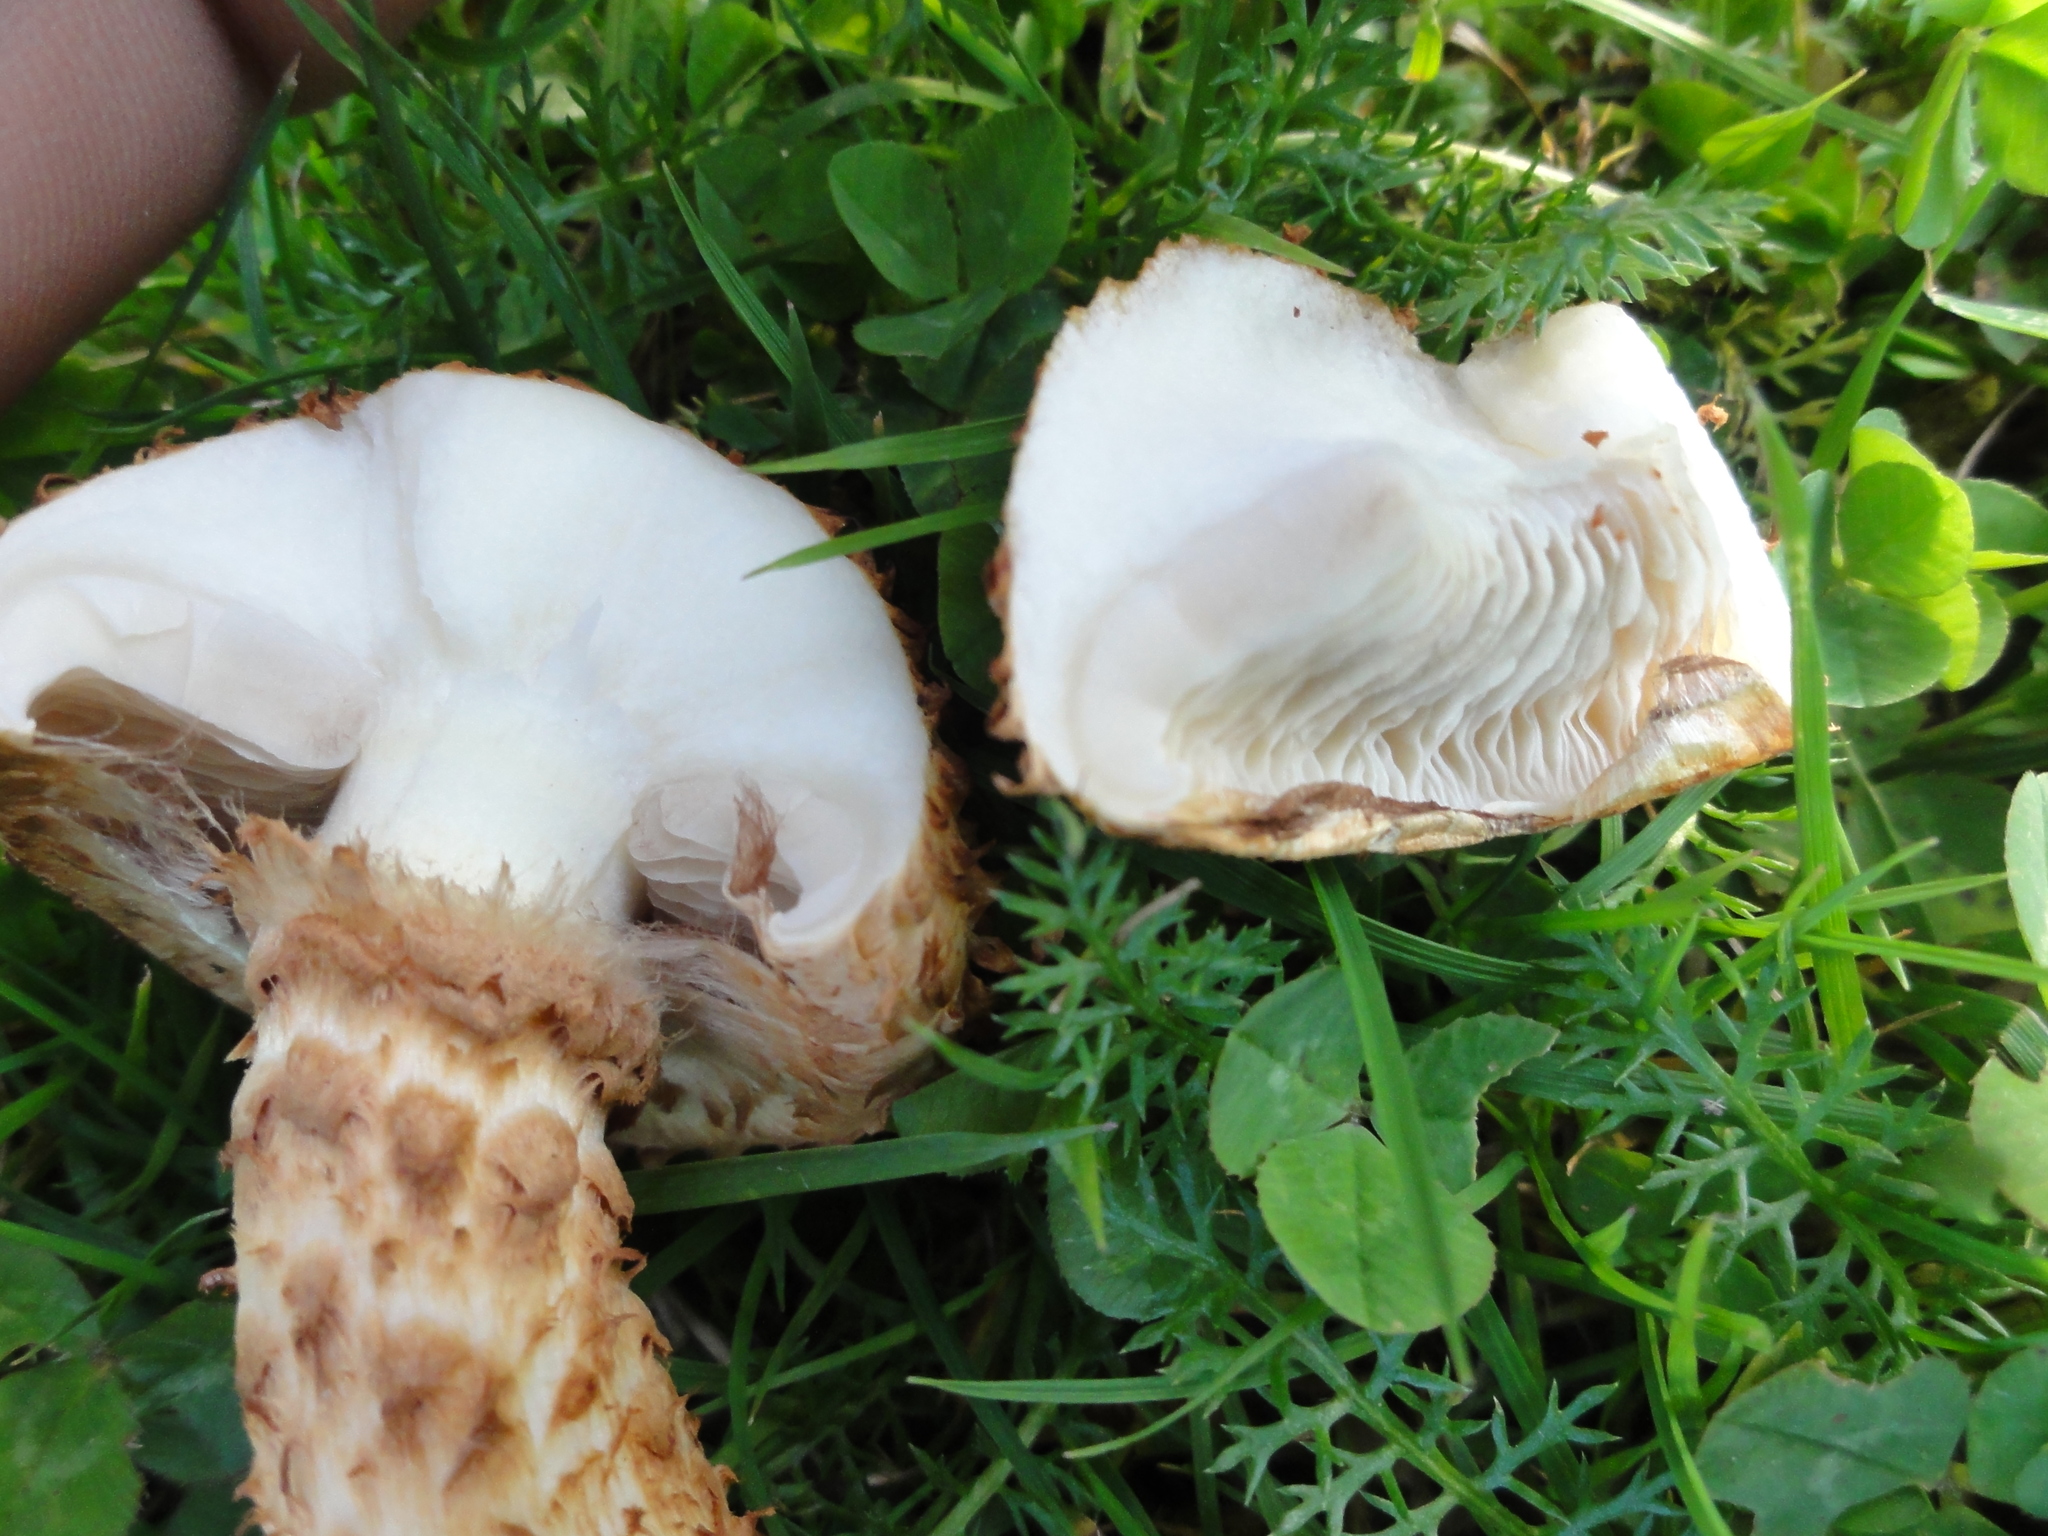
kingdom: Fungi
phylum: Basidiomycota
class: Agaricomycetes
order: Agaricales
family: Strophariaceae
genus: Pholiota
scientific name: Pholiota squarrosa
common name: Shaggy pholiota
